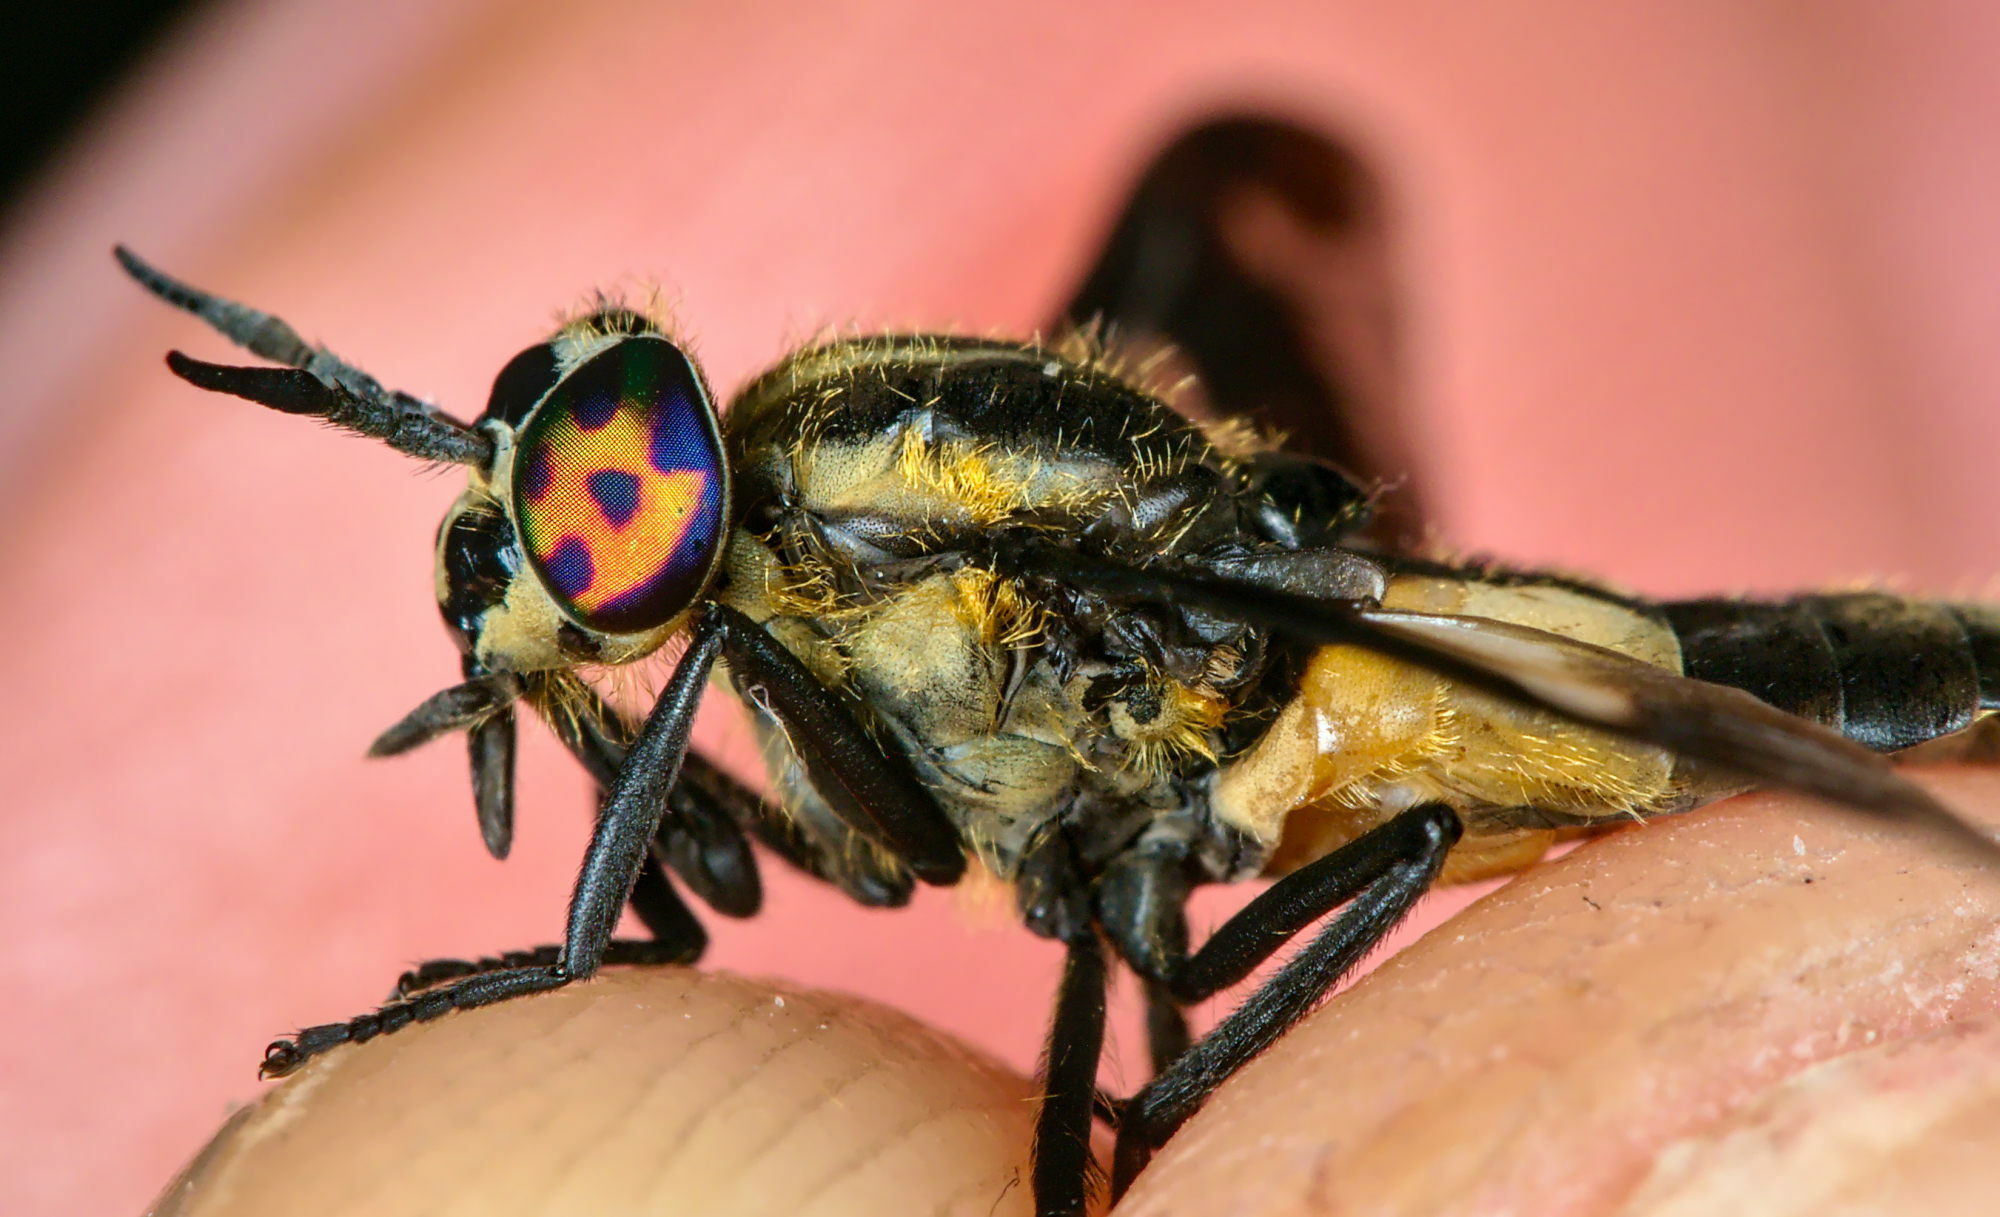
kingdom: Animalia
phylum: Arthropoda
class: Insecta
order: Diptera
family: Tabanidae
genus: Chrysops
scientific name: Chrysops caecutiens
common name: Splayed deerfly
